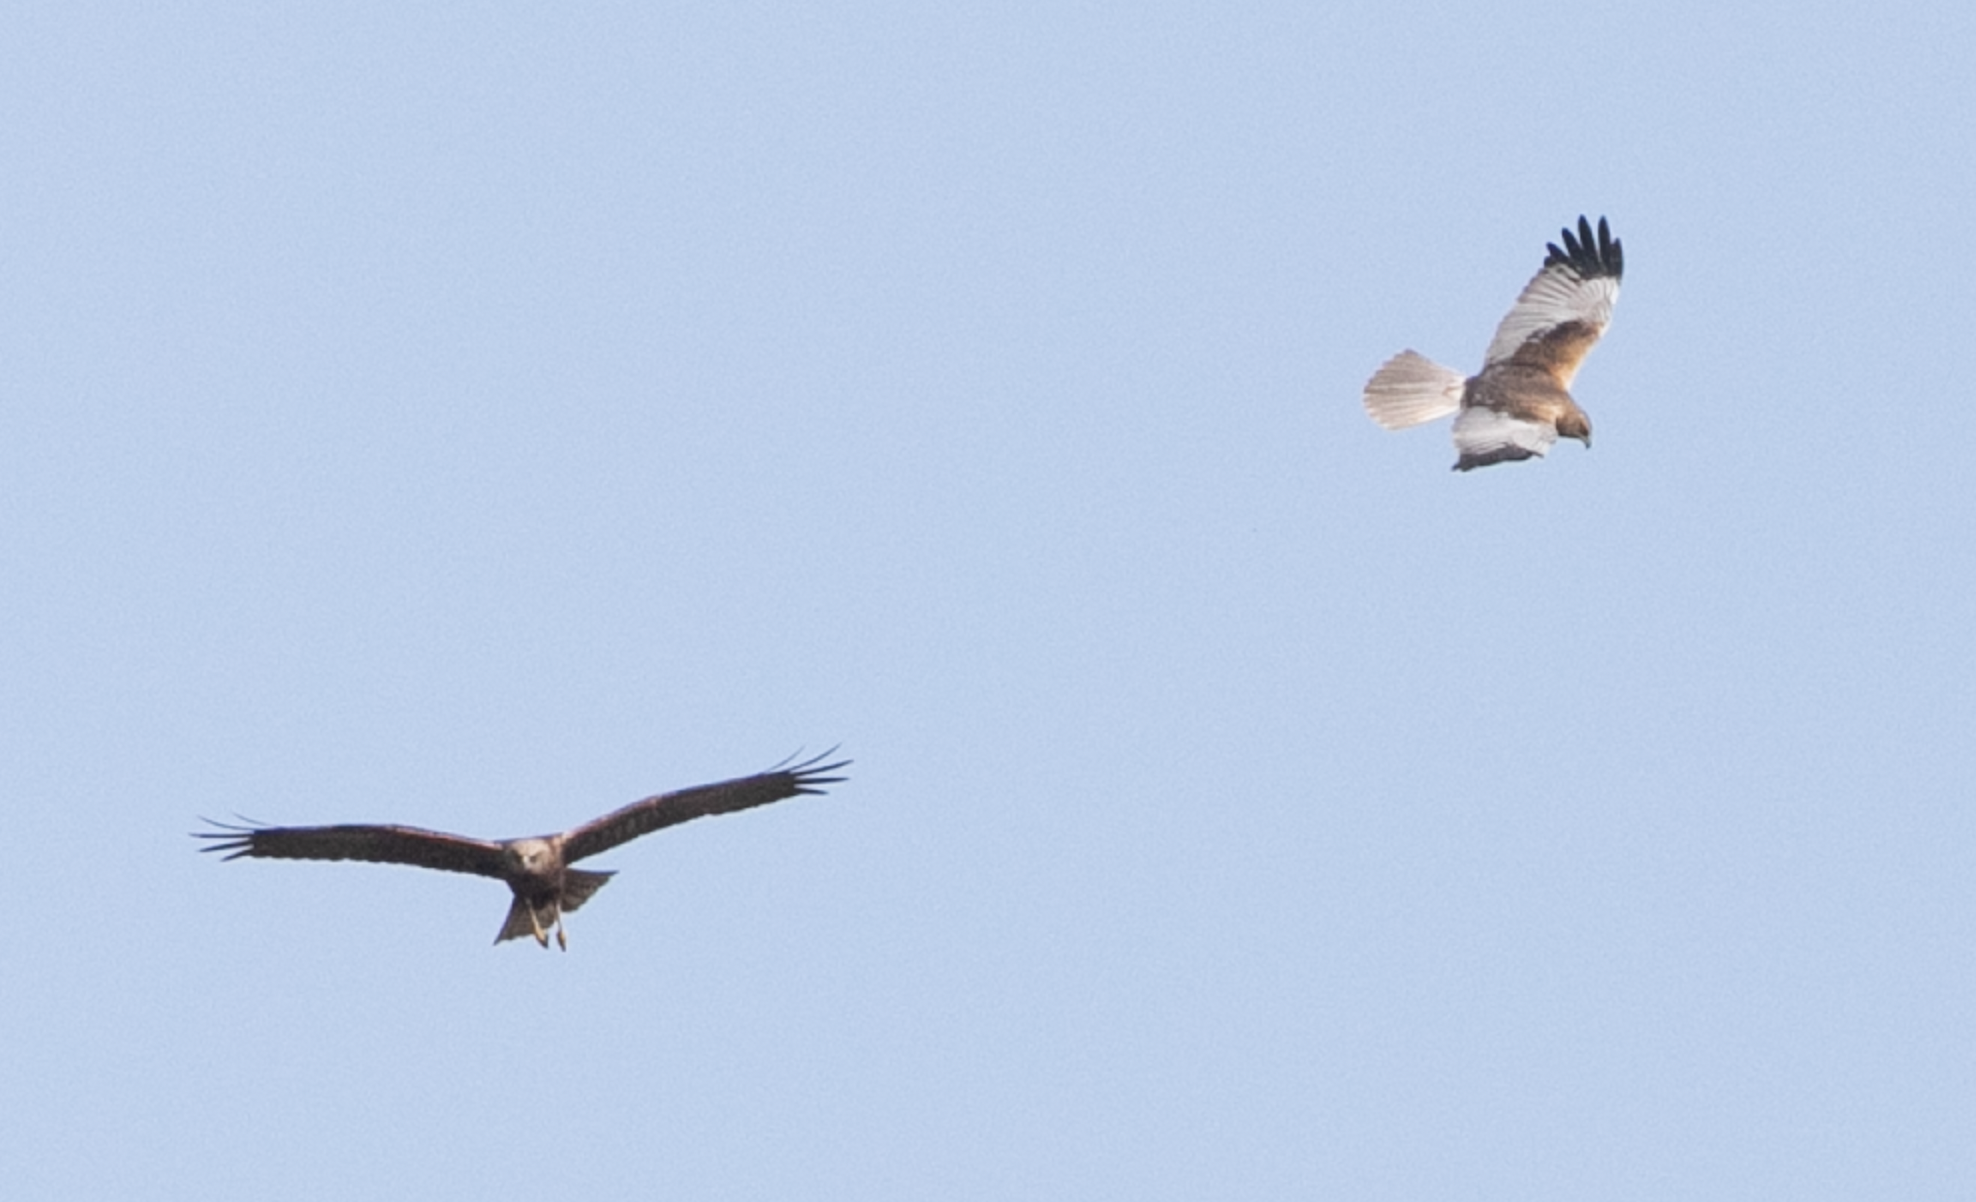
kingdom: Animalia
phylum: Chordata
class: Aves
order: Accipitriformes
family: Accipitridae
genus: Circus
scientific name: Circus aeruginosus
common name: Western marsh harrier
